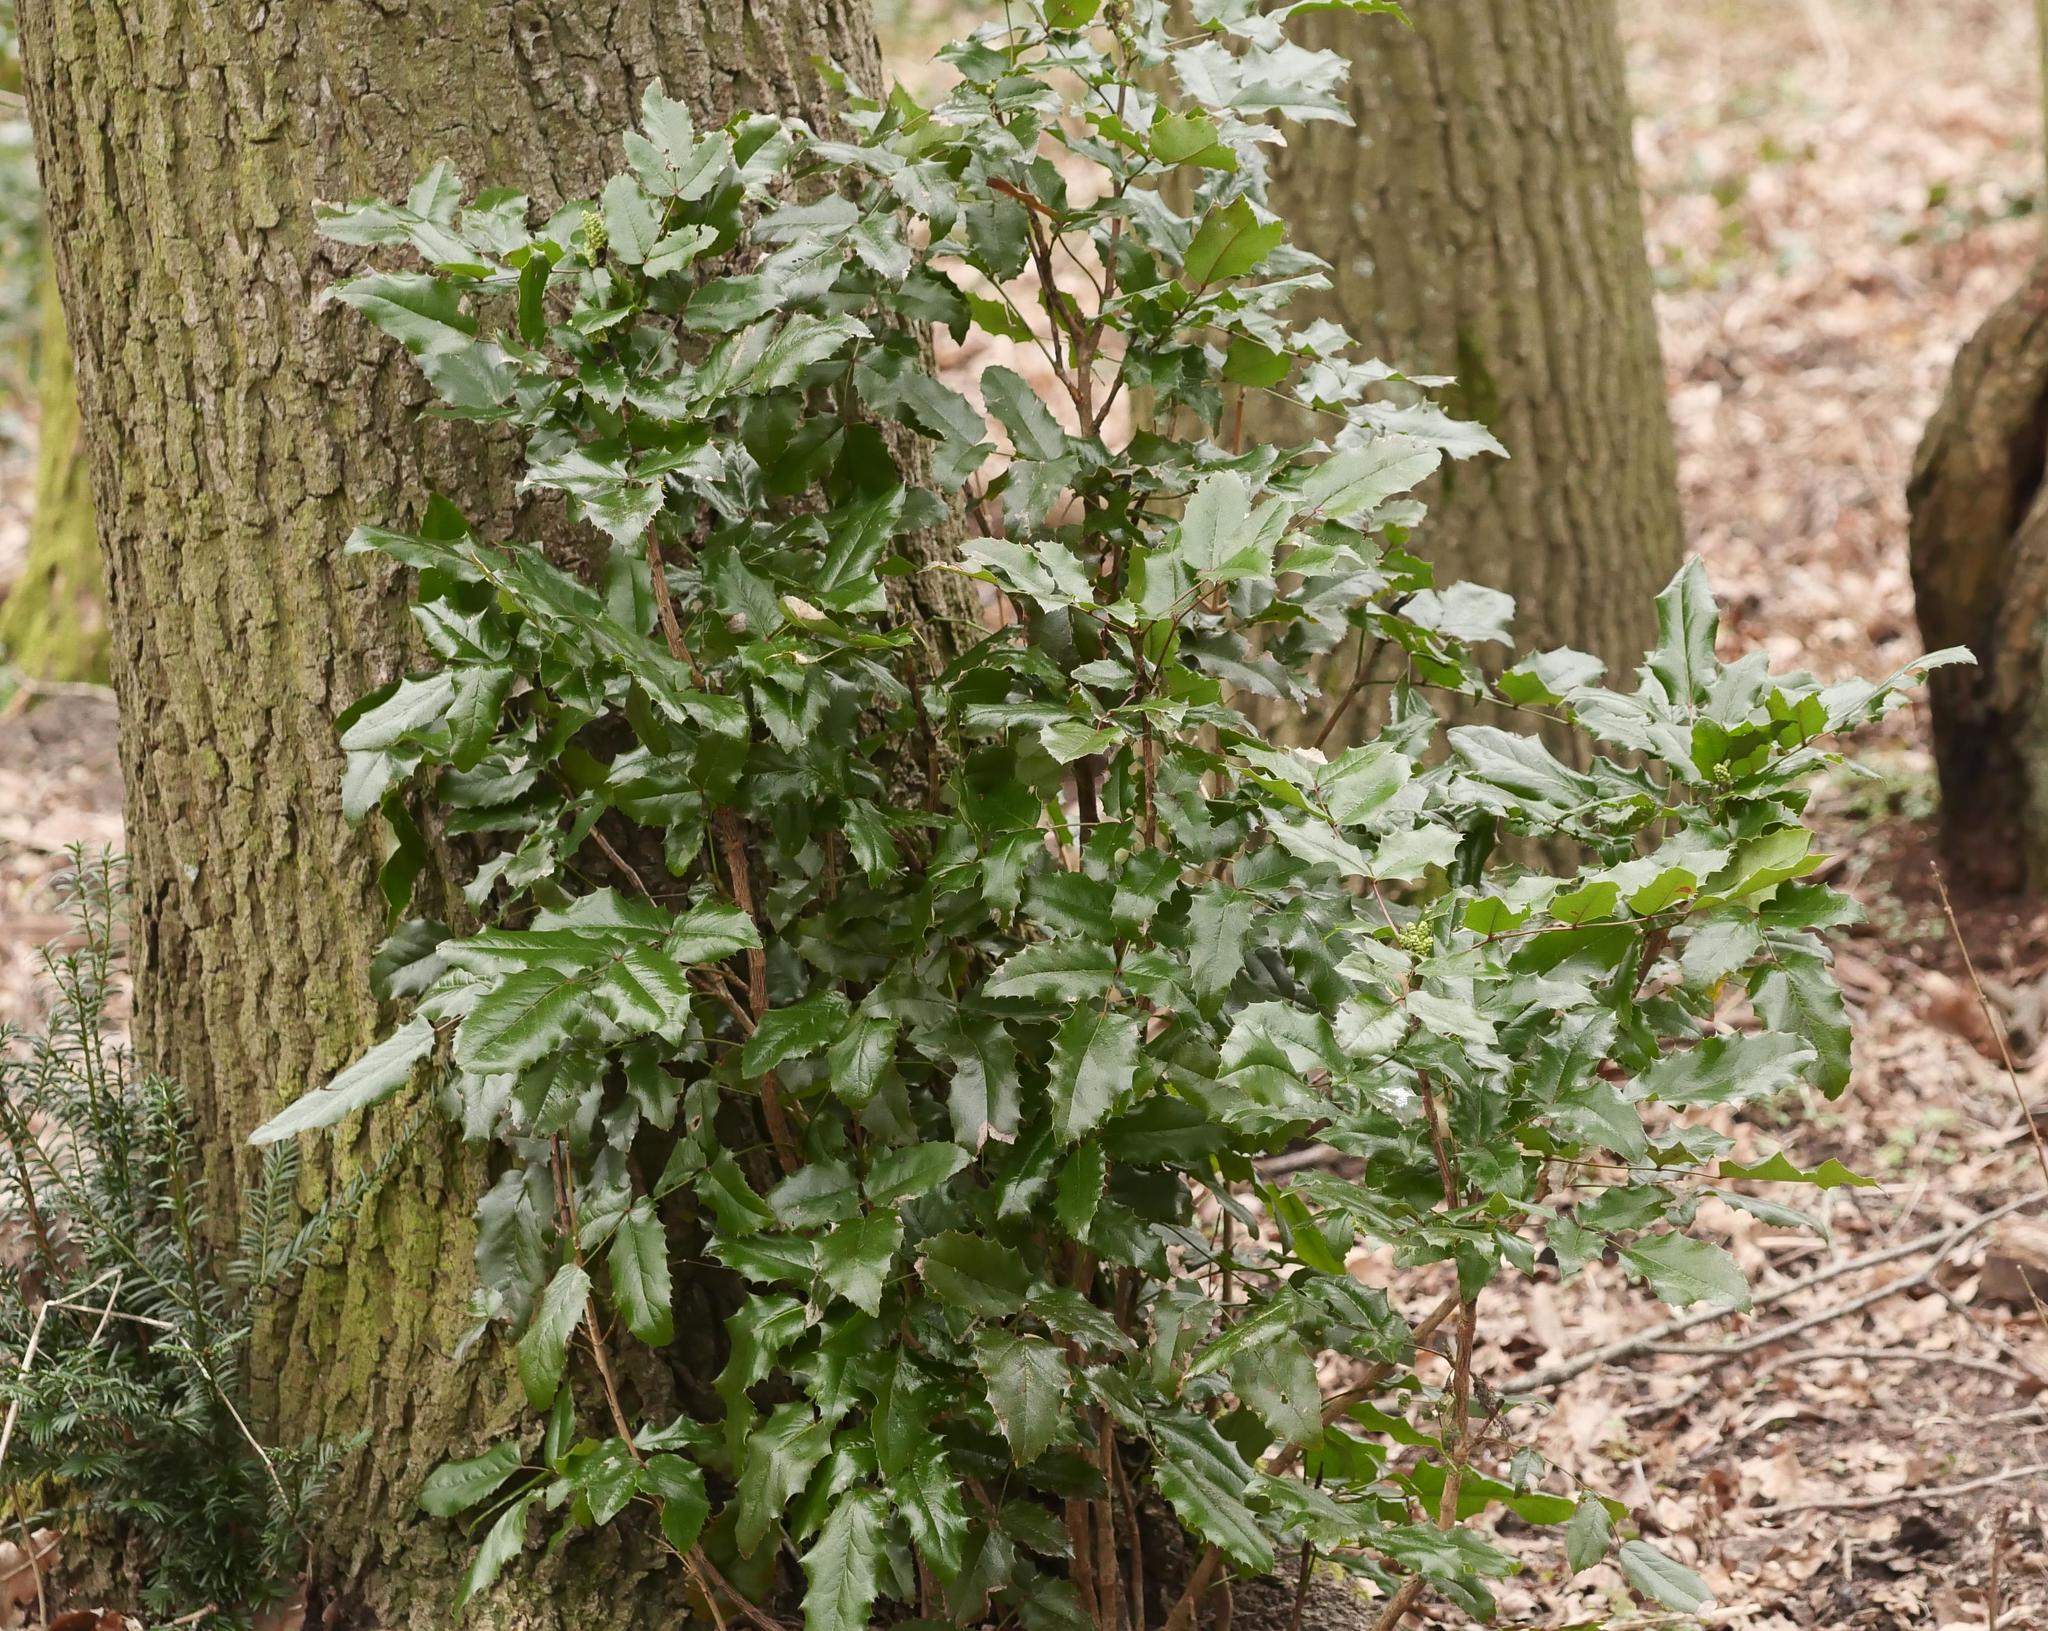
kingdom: Plantae
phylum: Tracheophyta
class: Magnoliopsida
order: Ranunculales
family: Berberidaceae
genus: Mahonia
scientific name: Mahonia aquifolium
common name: Oregon-grape
